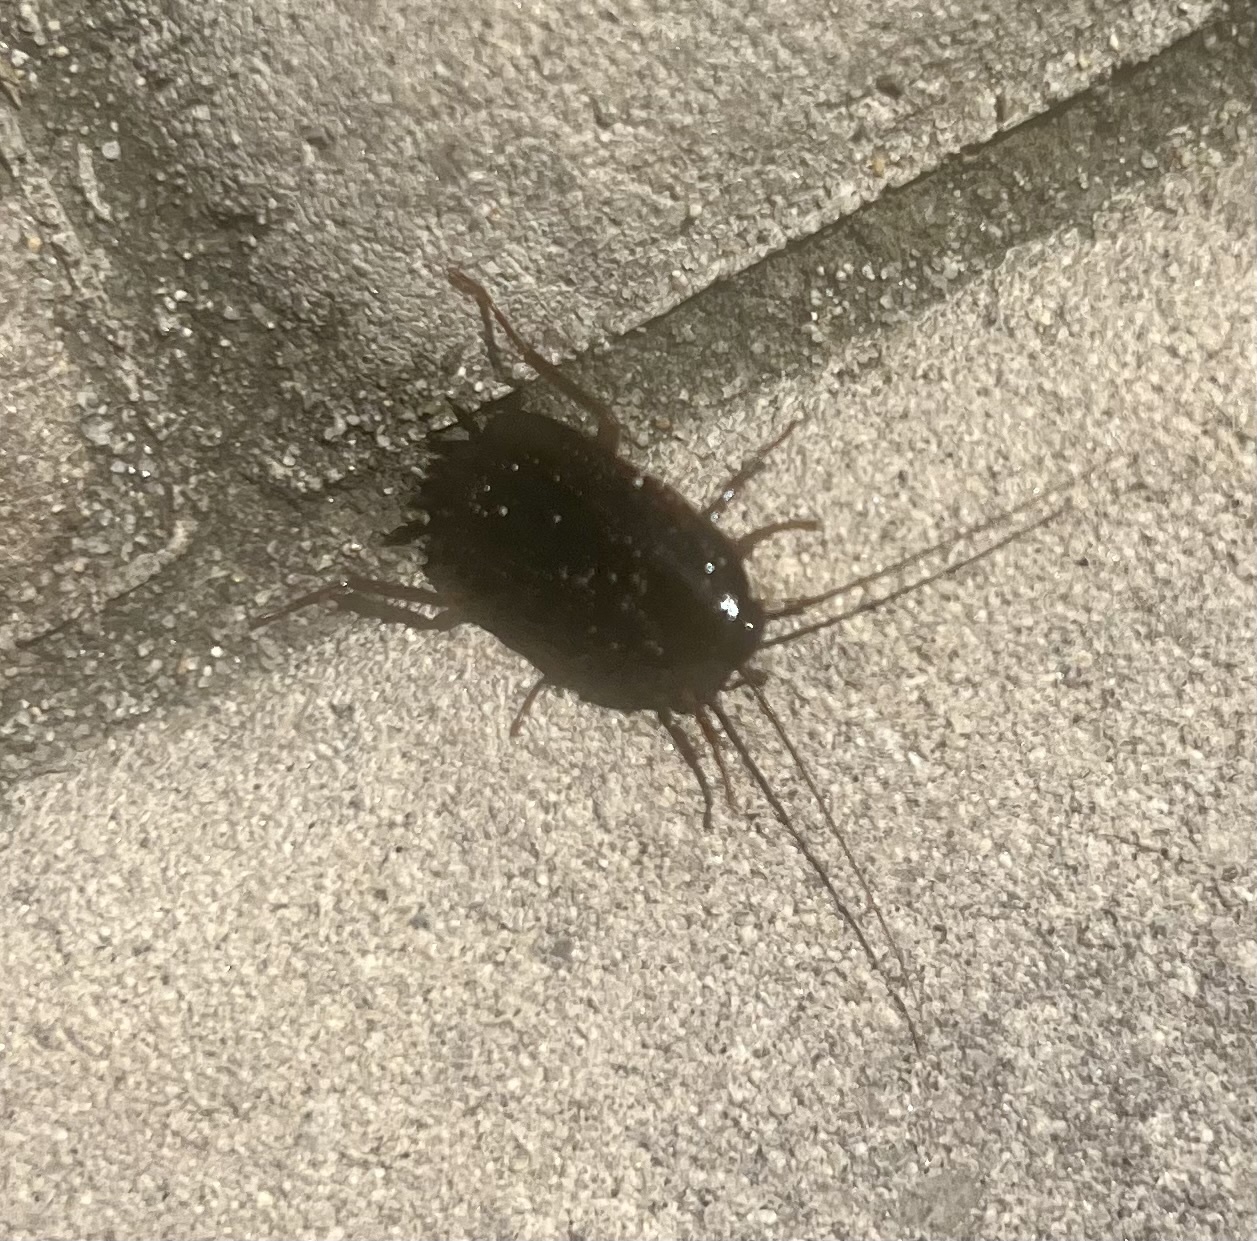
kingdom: Animalia
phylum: Arthropoda
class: Insecta
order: Blattodea
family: Blattidae
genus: Blatta
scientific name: Blatta orientalis
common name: Oriental cockroach
